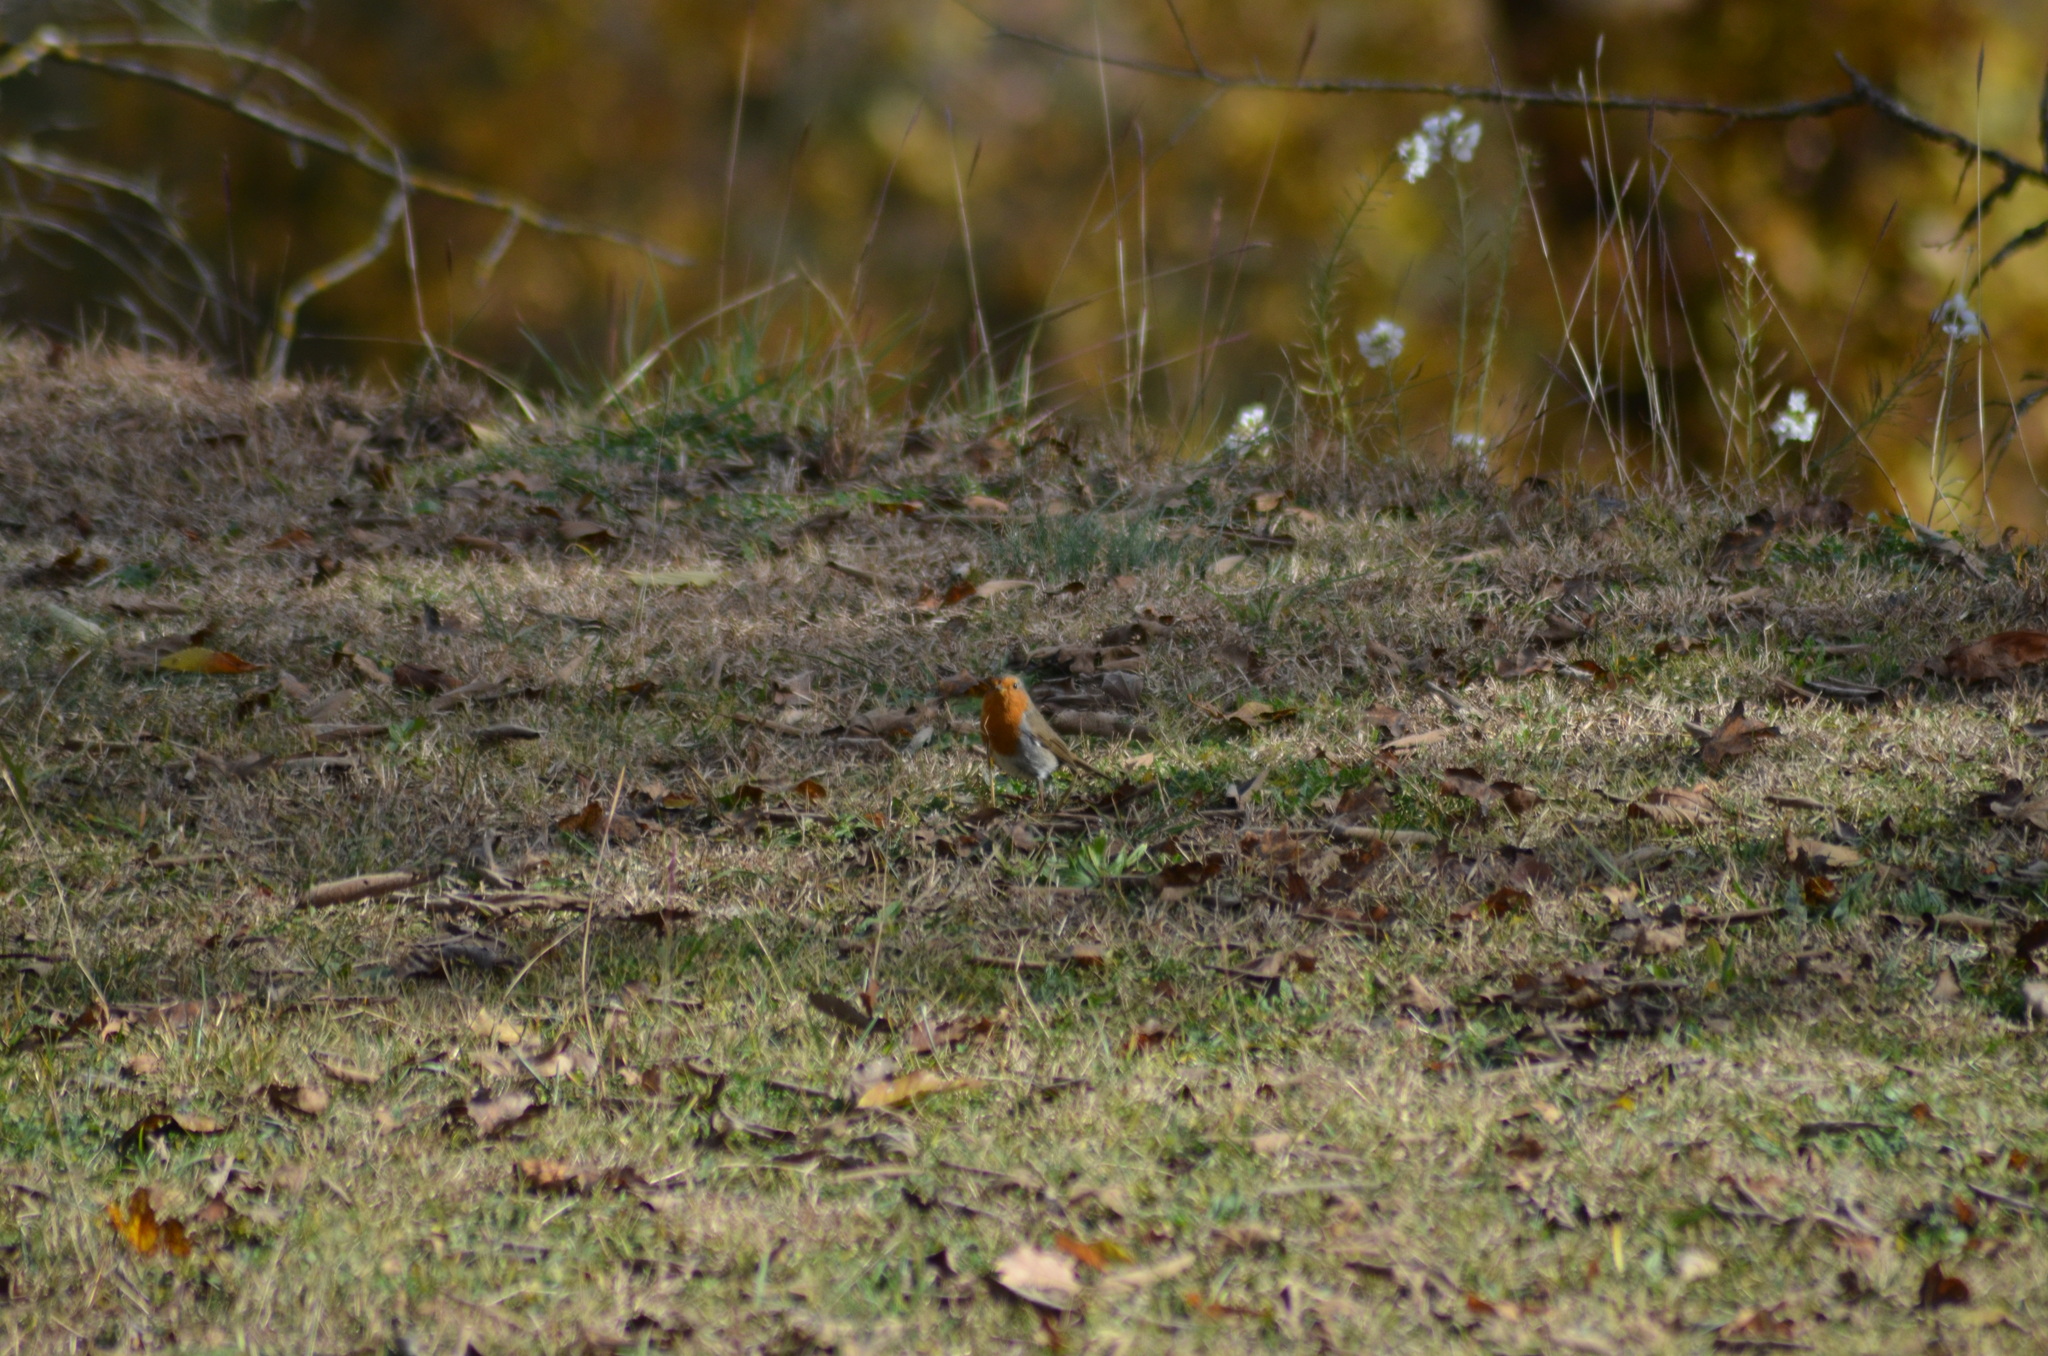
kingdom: Animalia
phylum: Chordata
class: Aves
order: Passeriformes
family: Muscicapidae
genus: Erithacus
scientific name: Erithacus rubecula
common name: European robin
